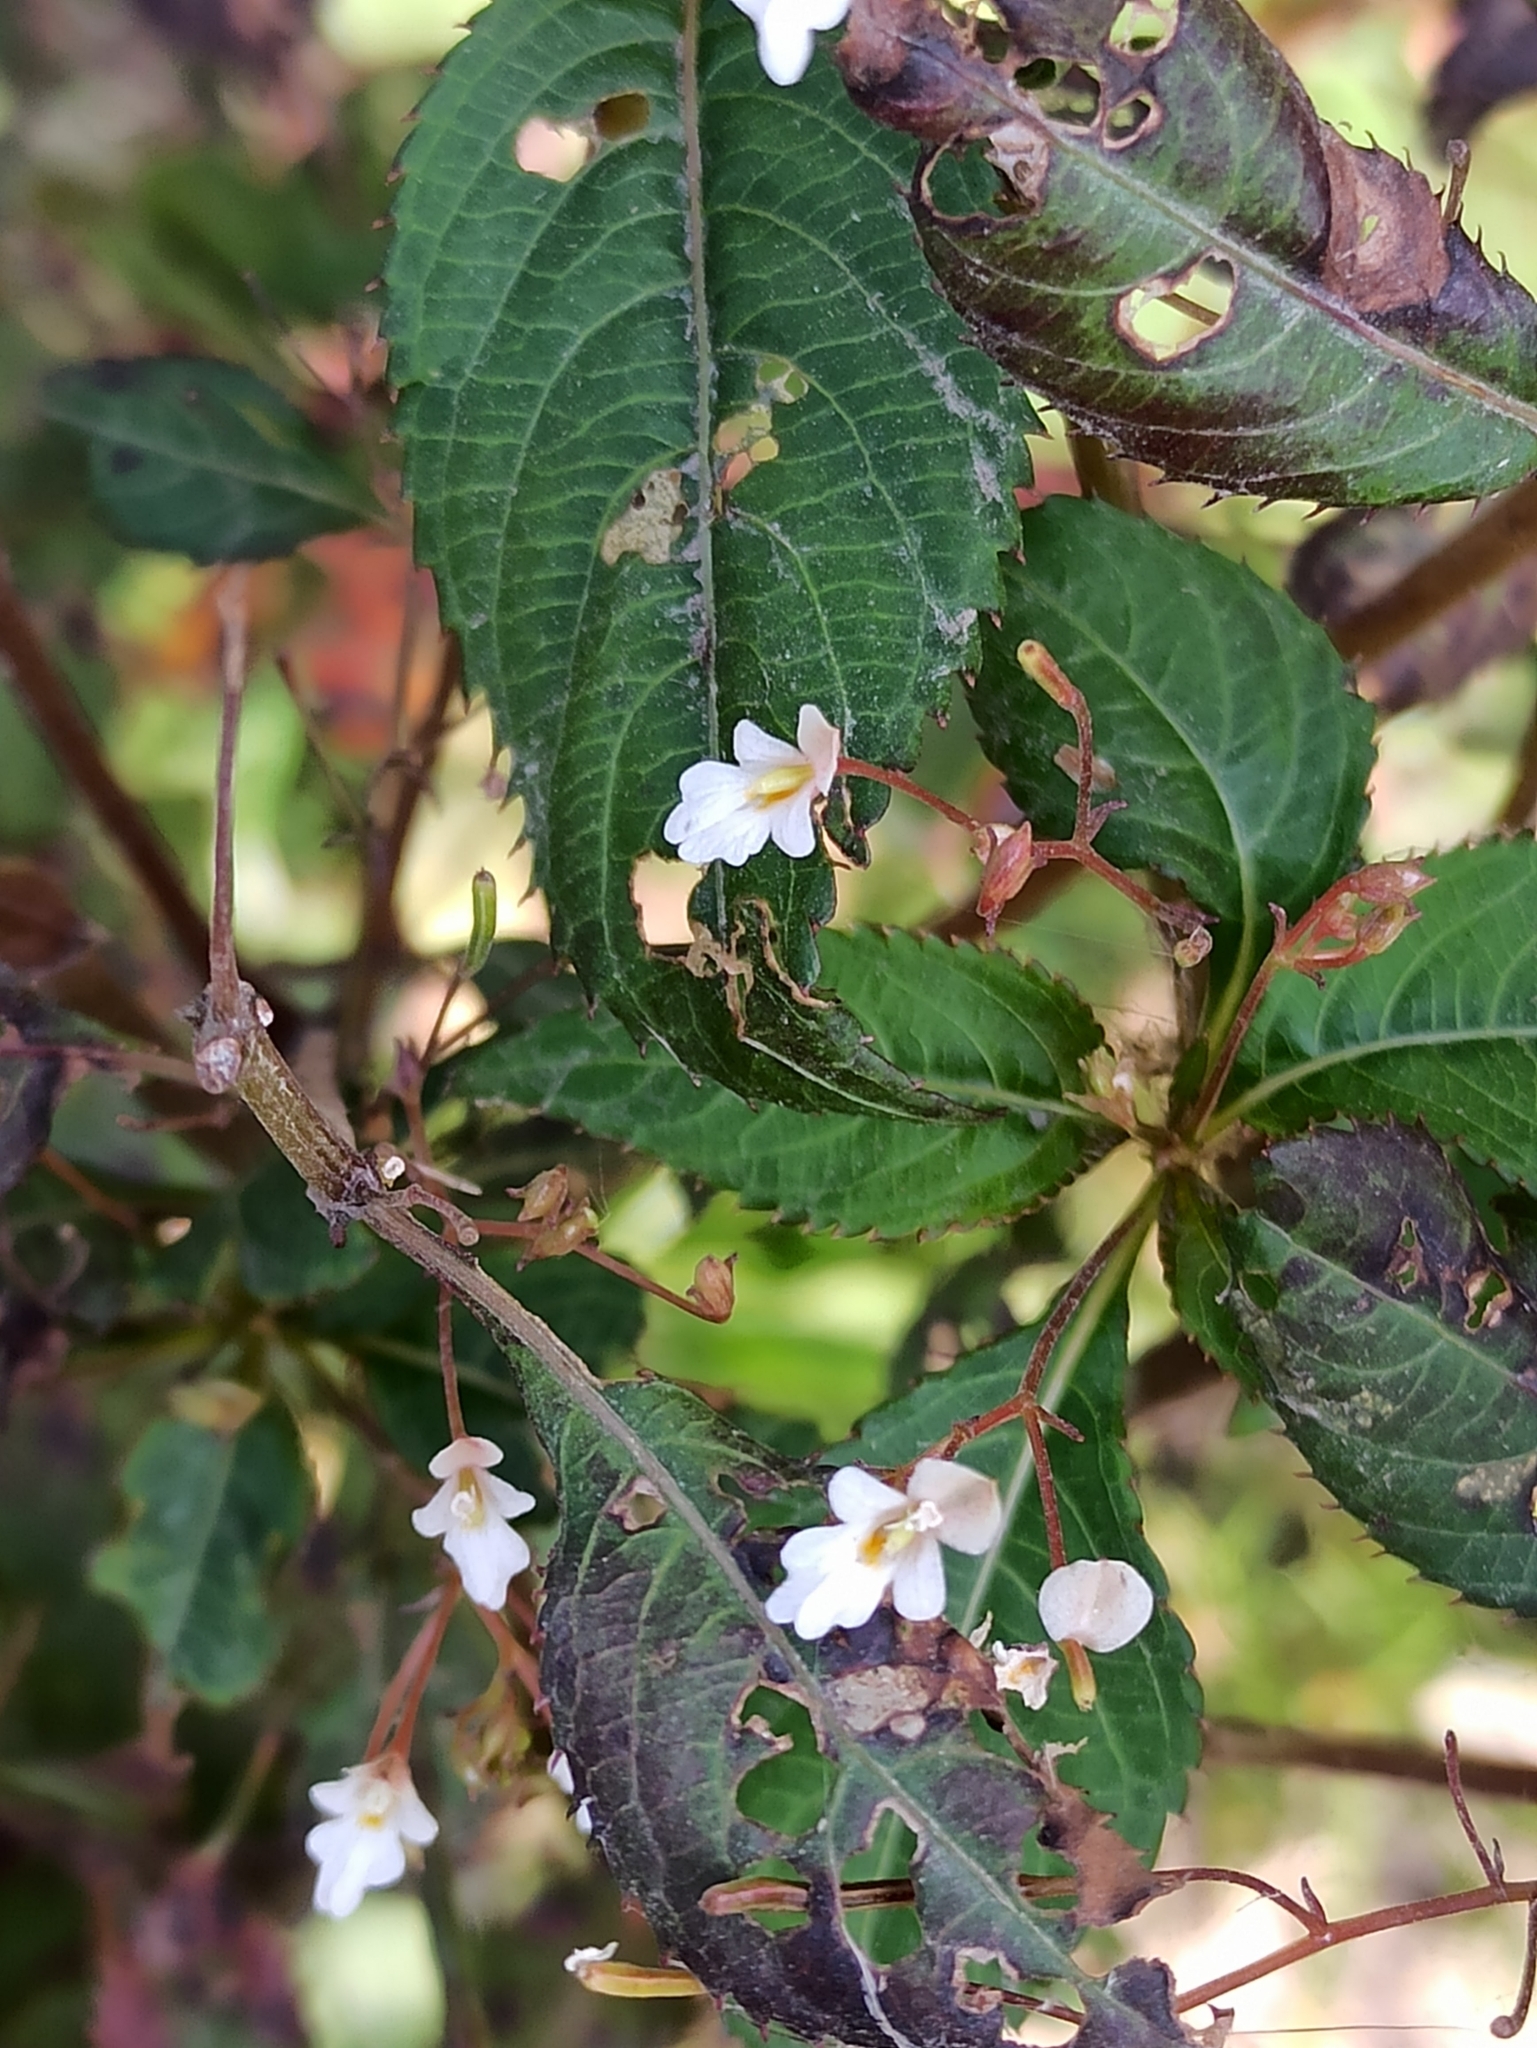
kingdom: Plantae
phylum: Tracheophyta
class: Magnoliopsida
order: Ericales
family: Balsaminaceae
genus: Impatiens
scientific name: Impatiens brachycentra
